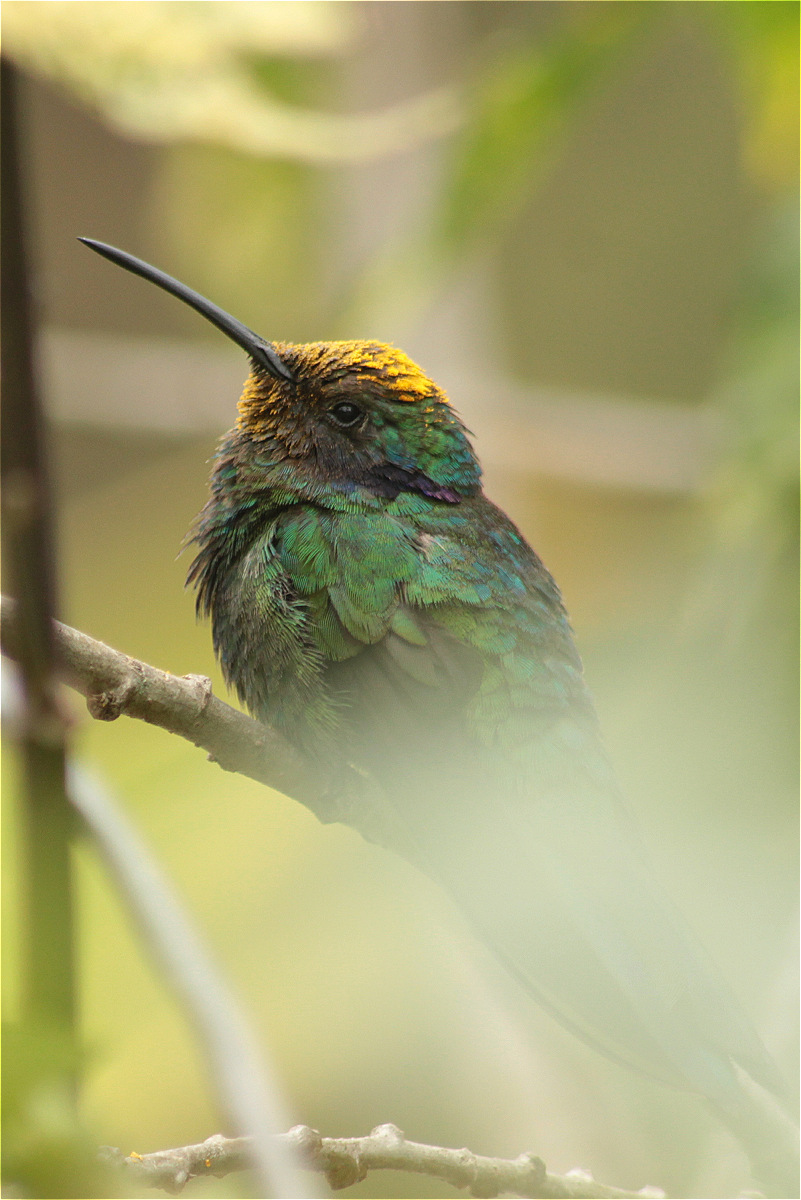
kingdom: Animalia
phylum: Chordata
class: Aves
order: Apodiformes
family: Trochilidae
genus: Colibri
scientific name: Colibri coruscans
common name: Sparkling violetear
